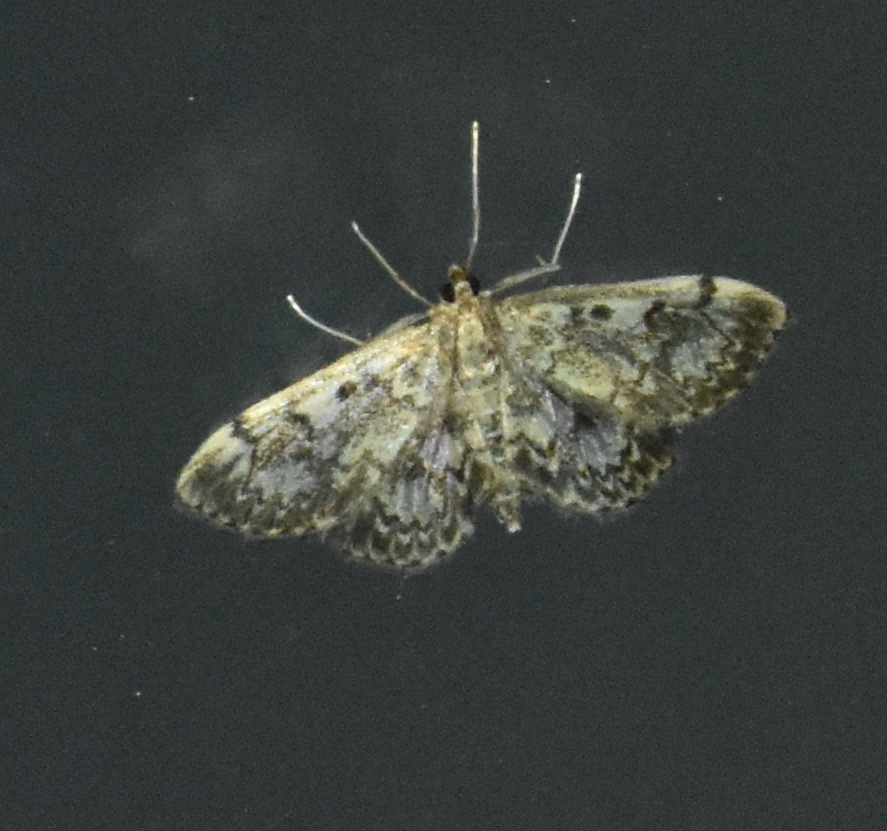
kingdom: Animalia
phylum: Arthropoda
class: Insecta
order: Lepidoptera
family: Crambidae
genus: Anania
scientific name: Anania tertialis
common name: Crowned phylctaenia moth
